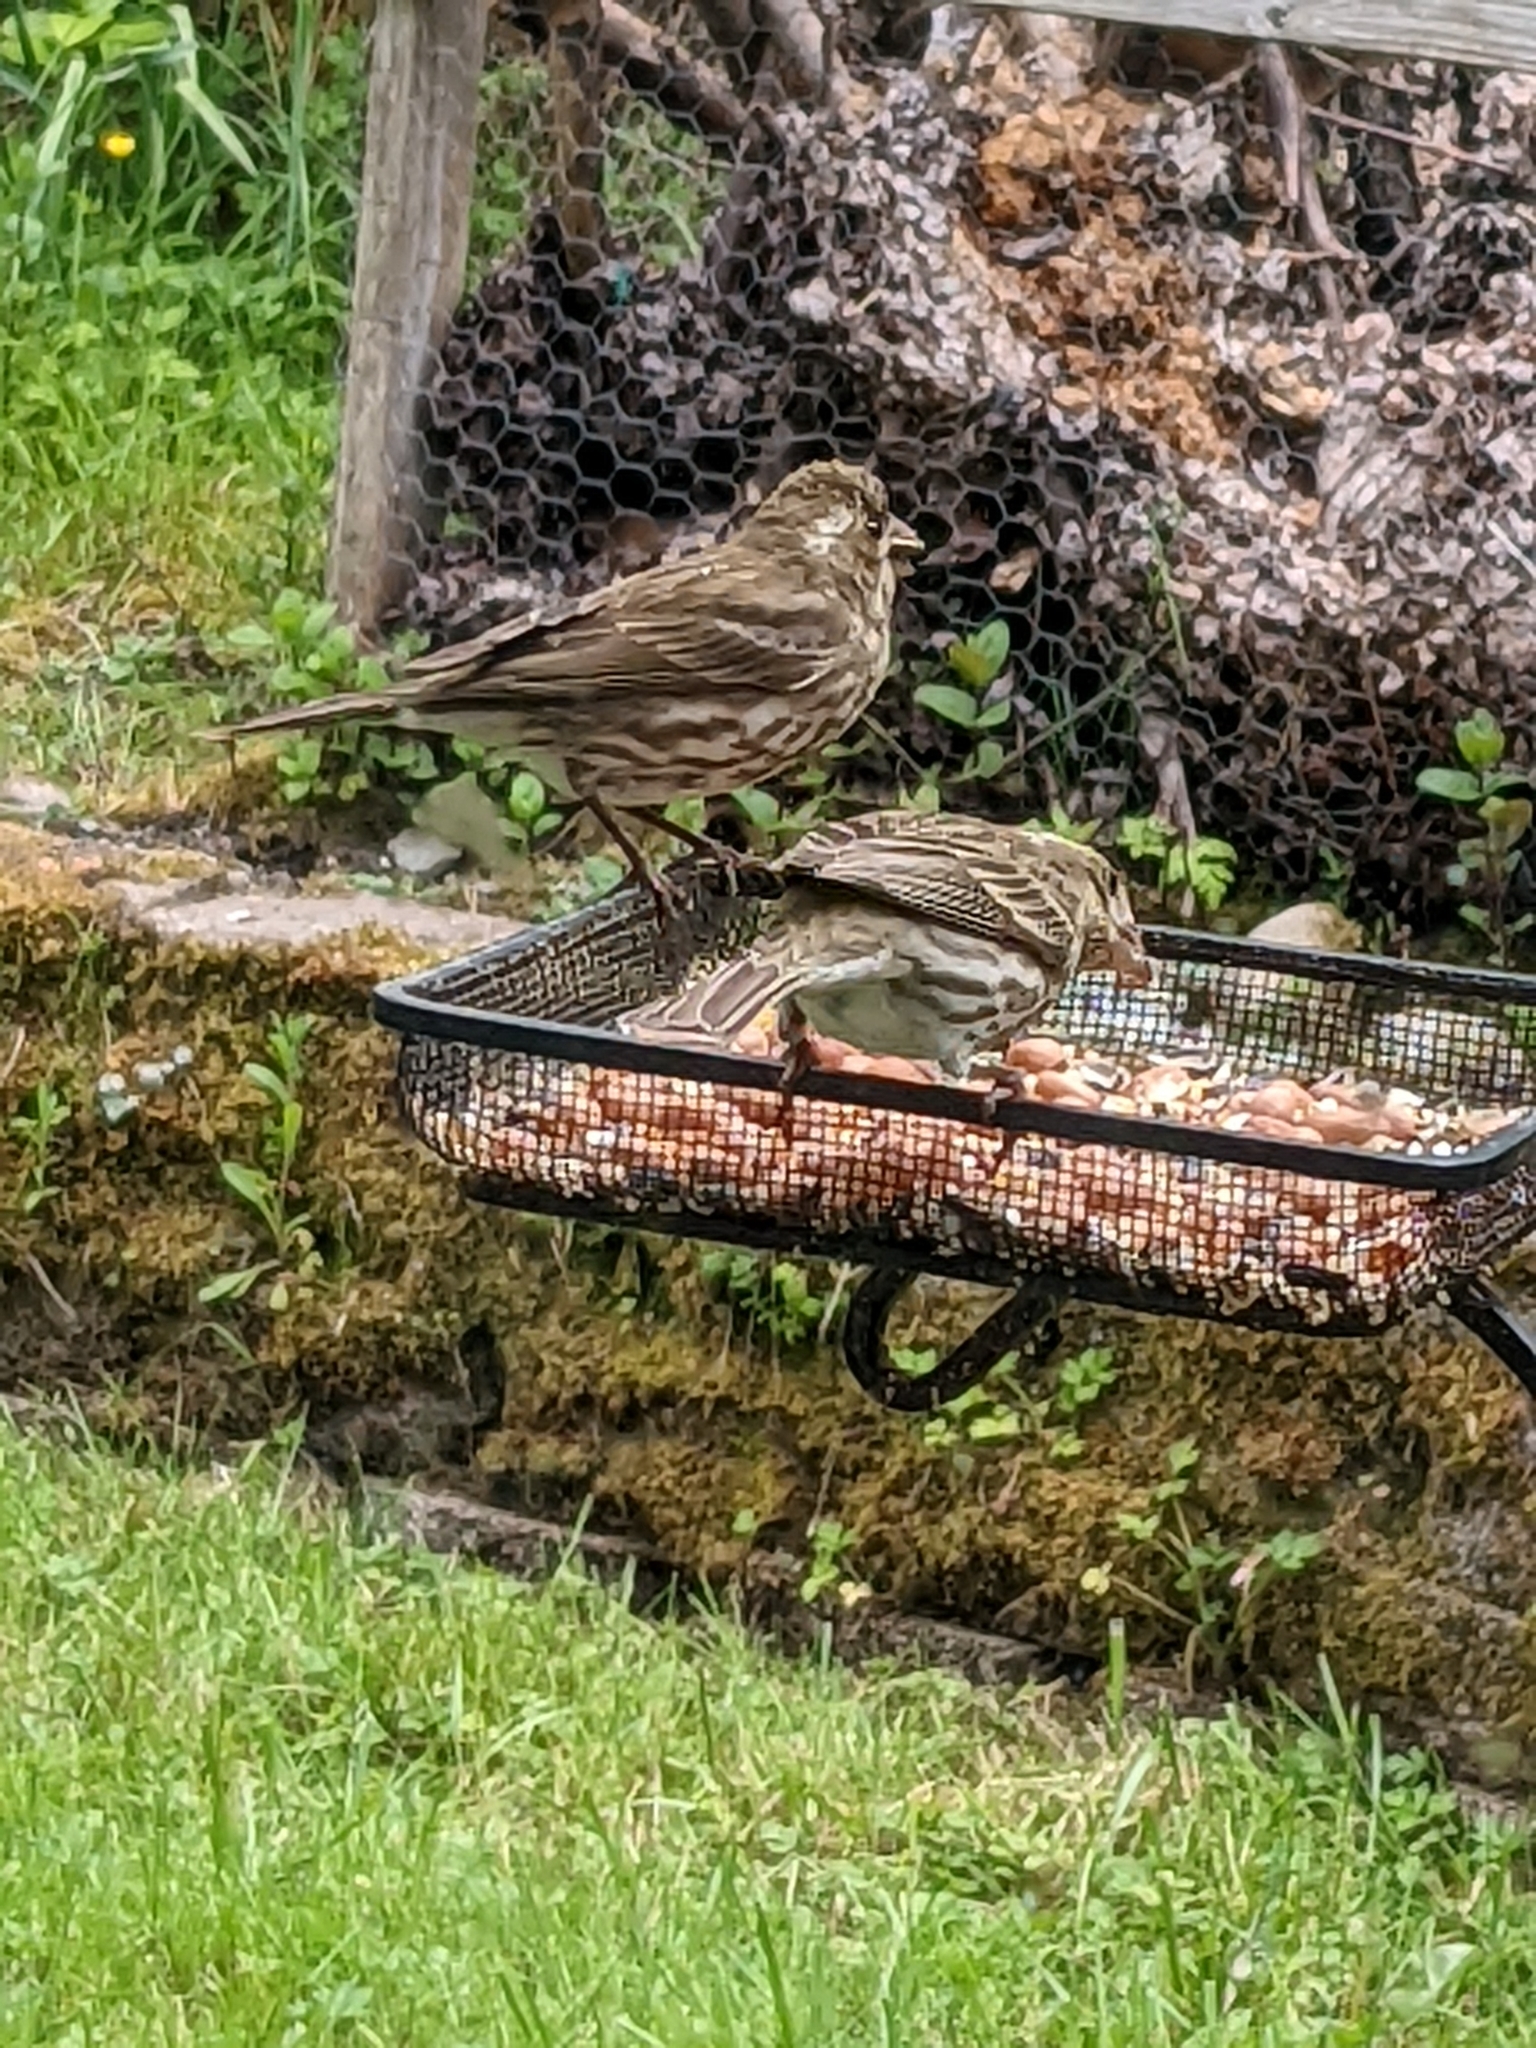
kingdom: Animalia
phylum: Chordata
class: Aves
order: Passeriformes
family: Fringillidae
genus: Haemorhous
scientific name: Haemorhous purpureus
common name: Purple finch
